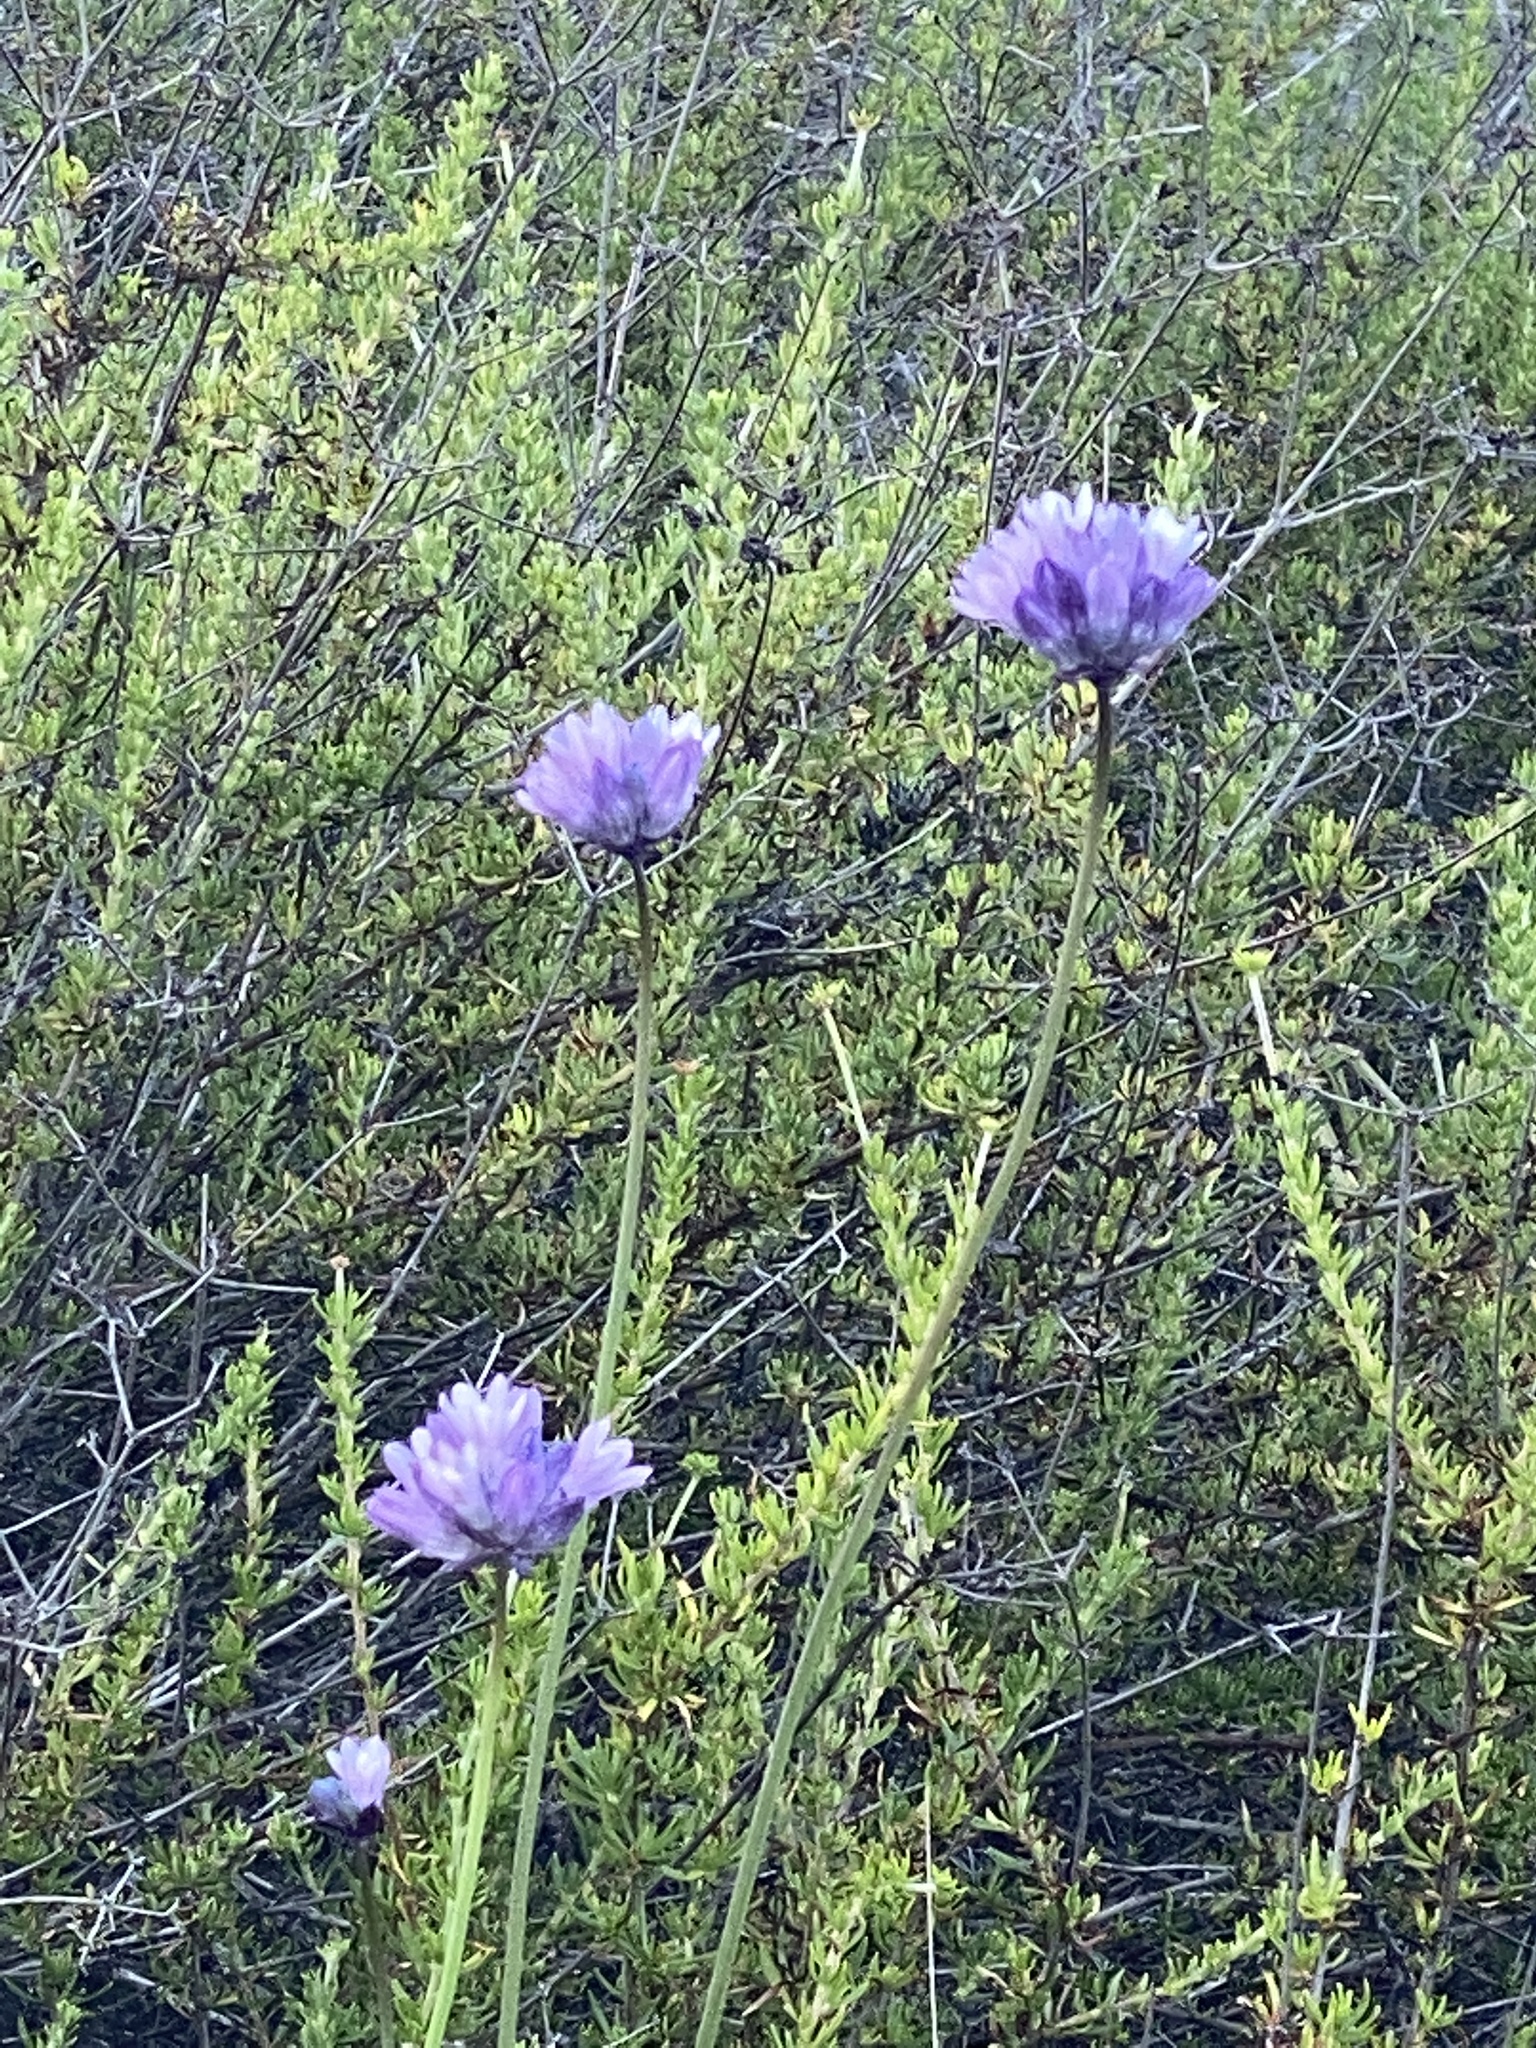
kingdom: Plantae
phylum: Tracheophyta
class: Liliopsida
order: Asparagales
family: Asparagaceae
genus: Dipterostemon
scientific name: Dipterostemon capitatus
